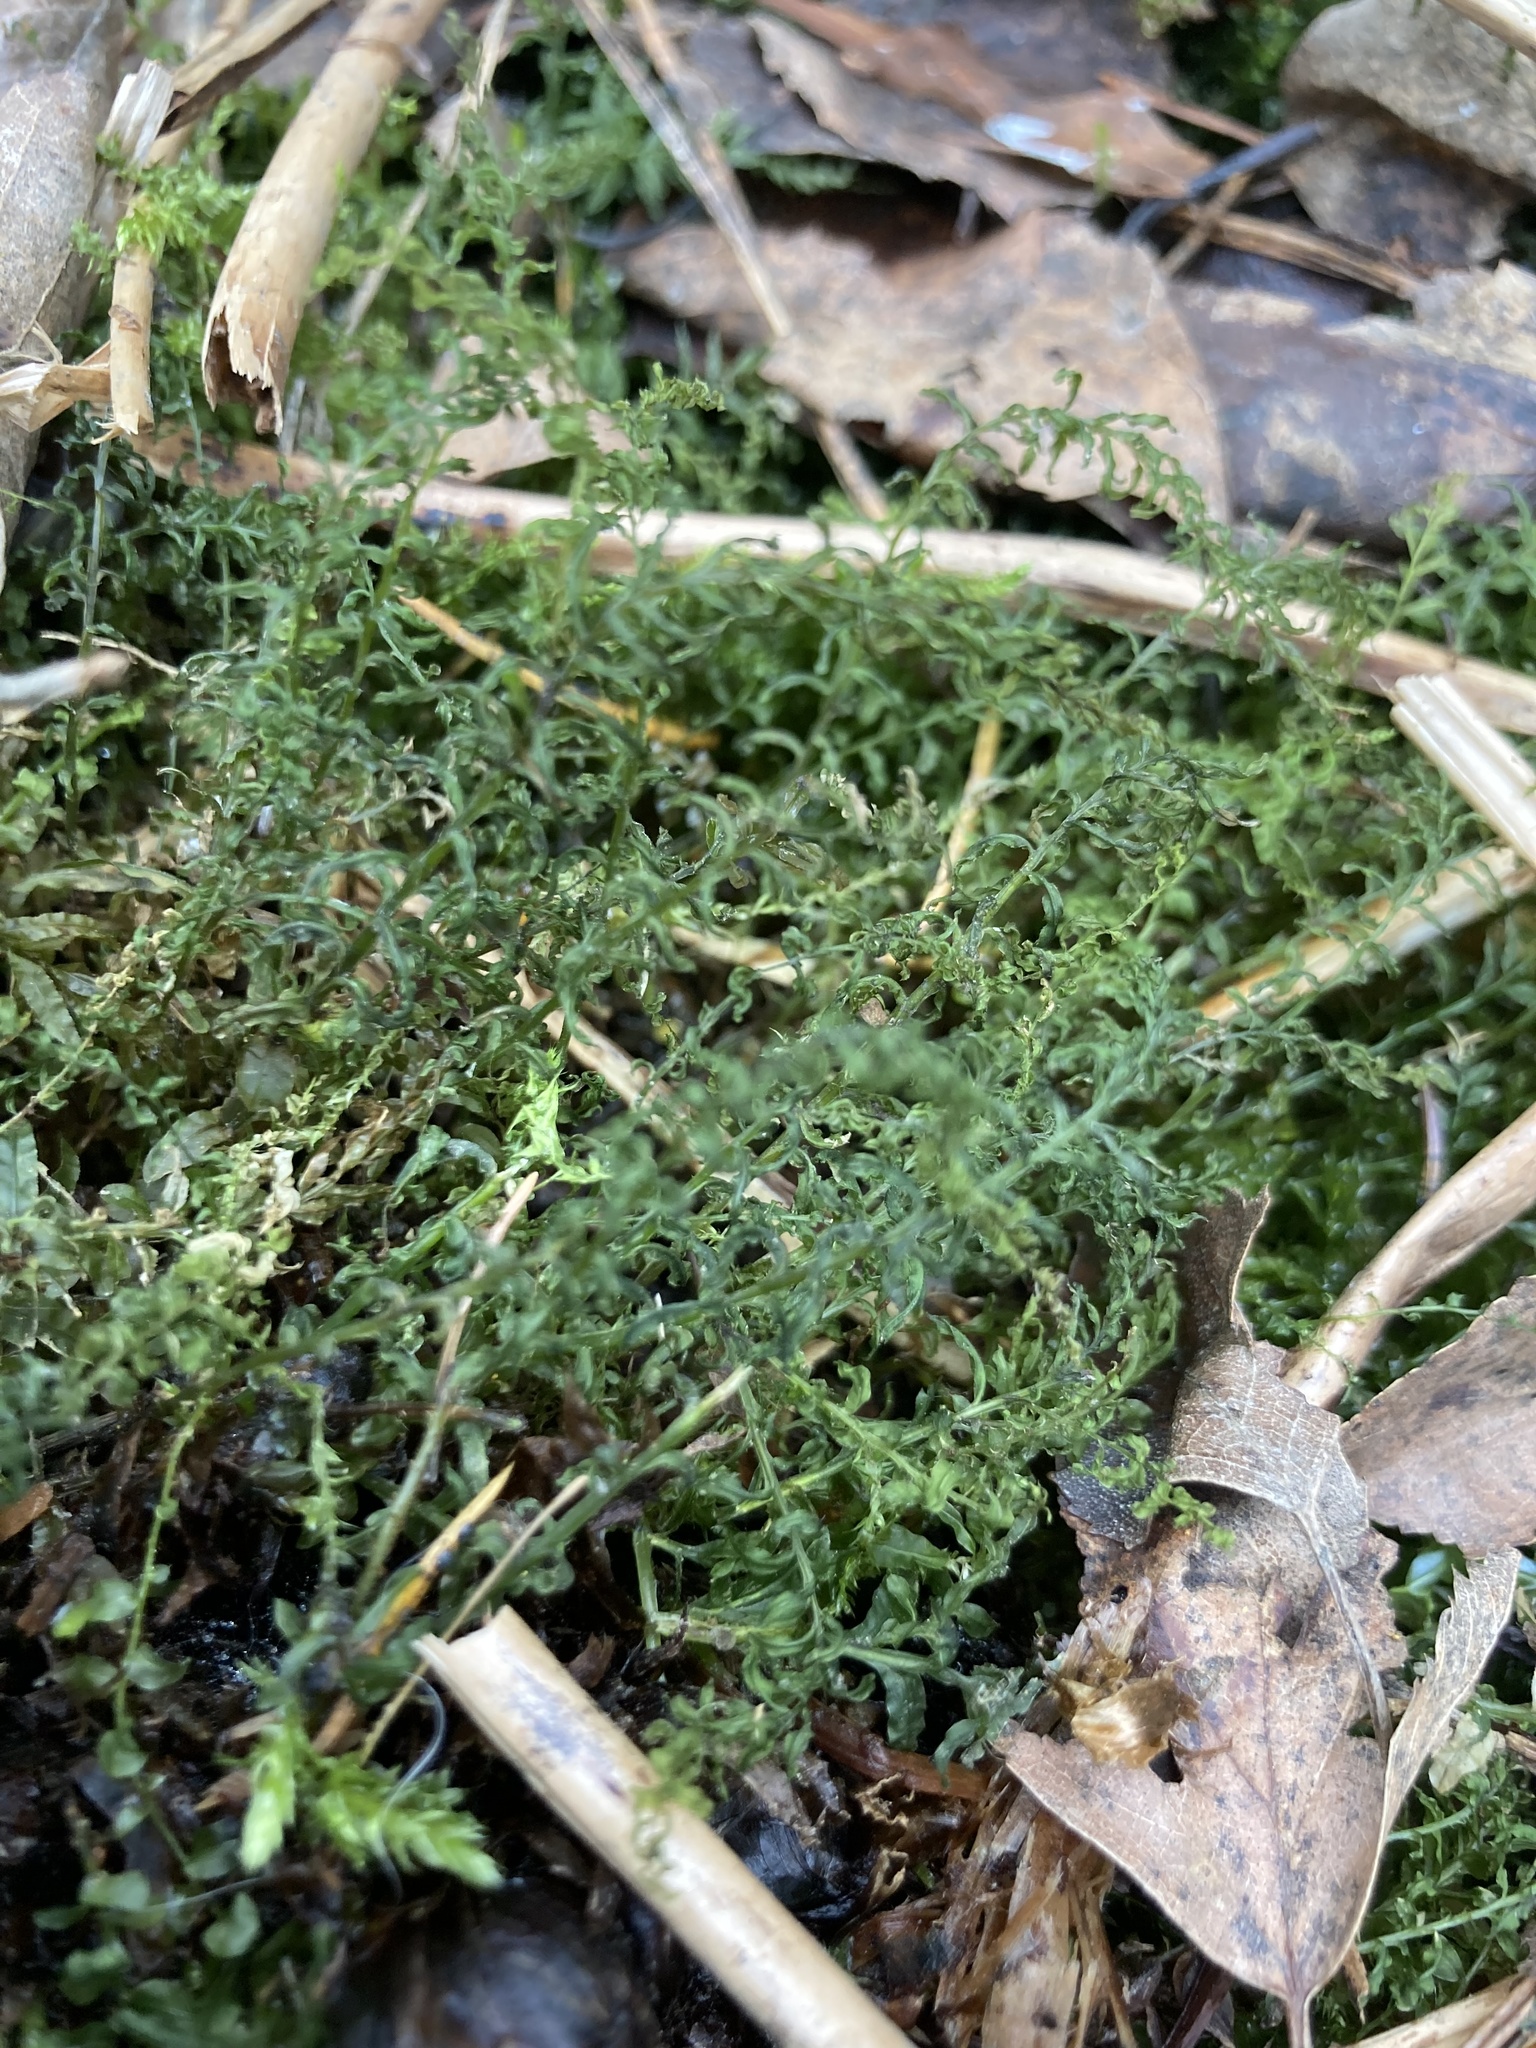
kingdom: Plantae
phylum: Bryophyta
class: Bryopsida
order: Bryales
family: Mniaceae
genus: Plagiomnium
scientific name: Plagiomnium undulatum
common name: Hart's-tongue thyme-moss
